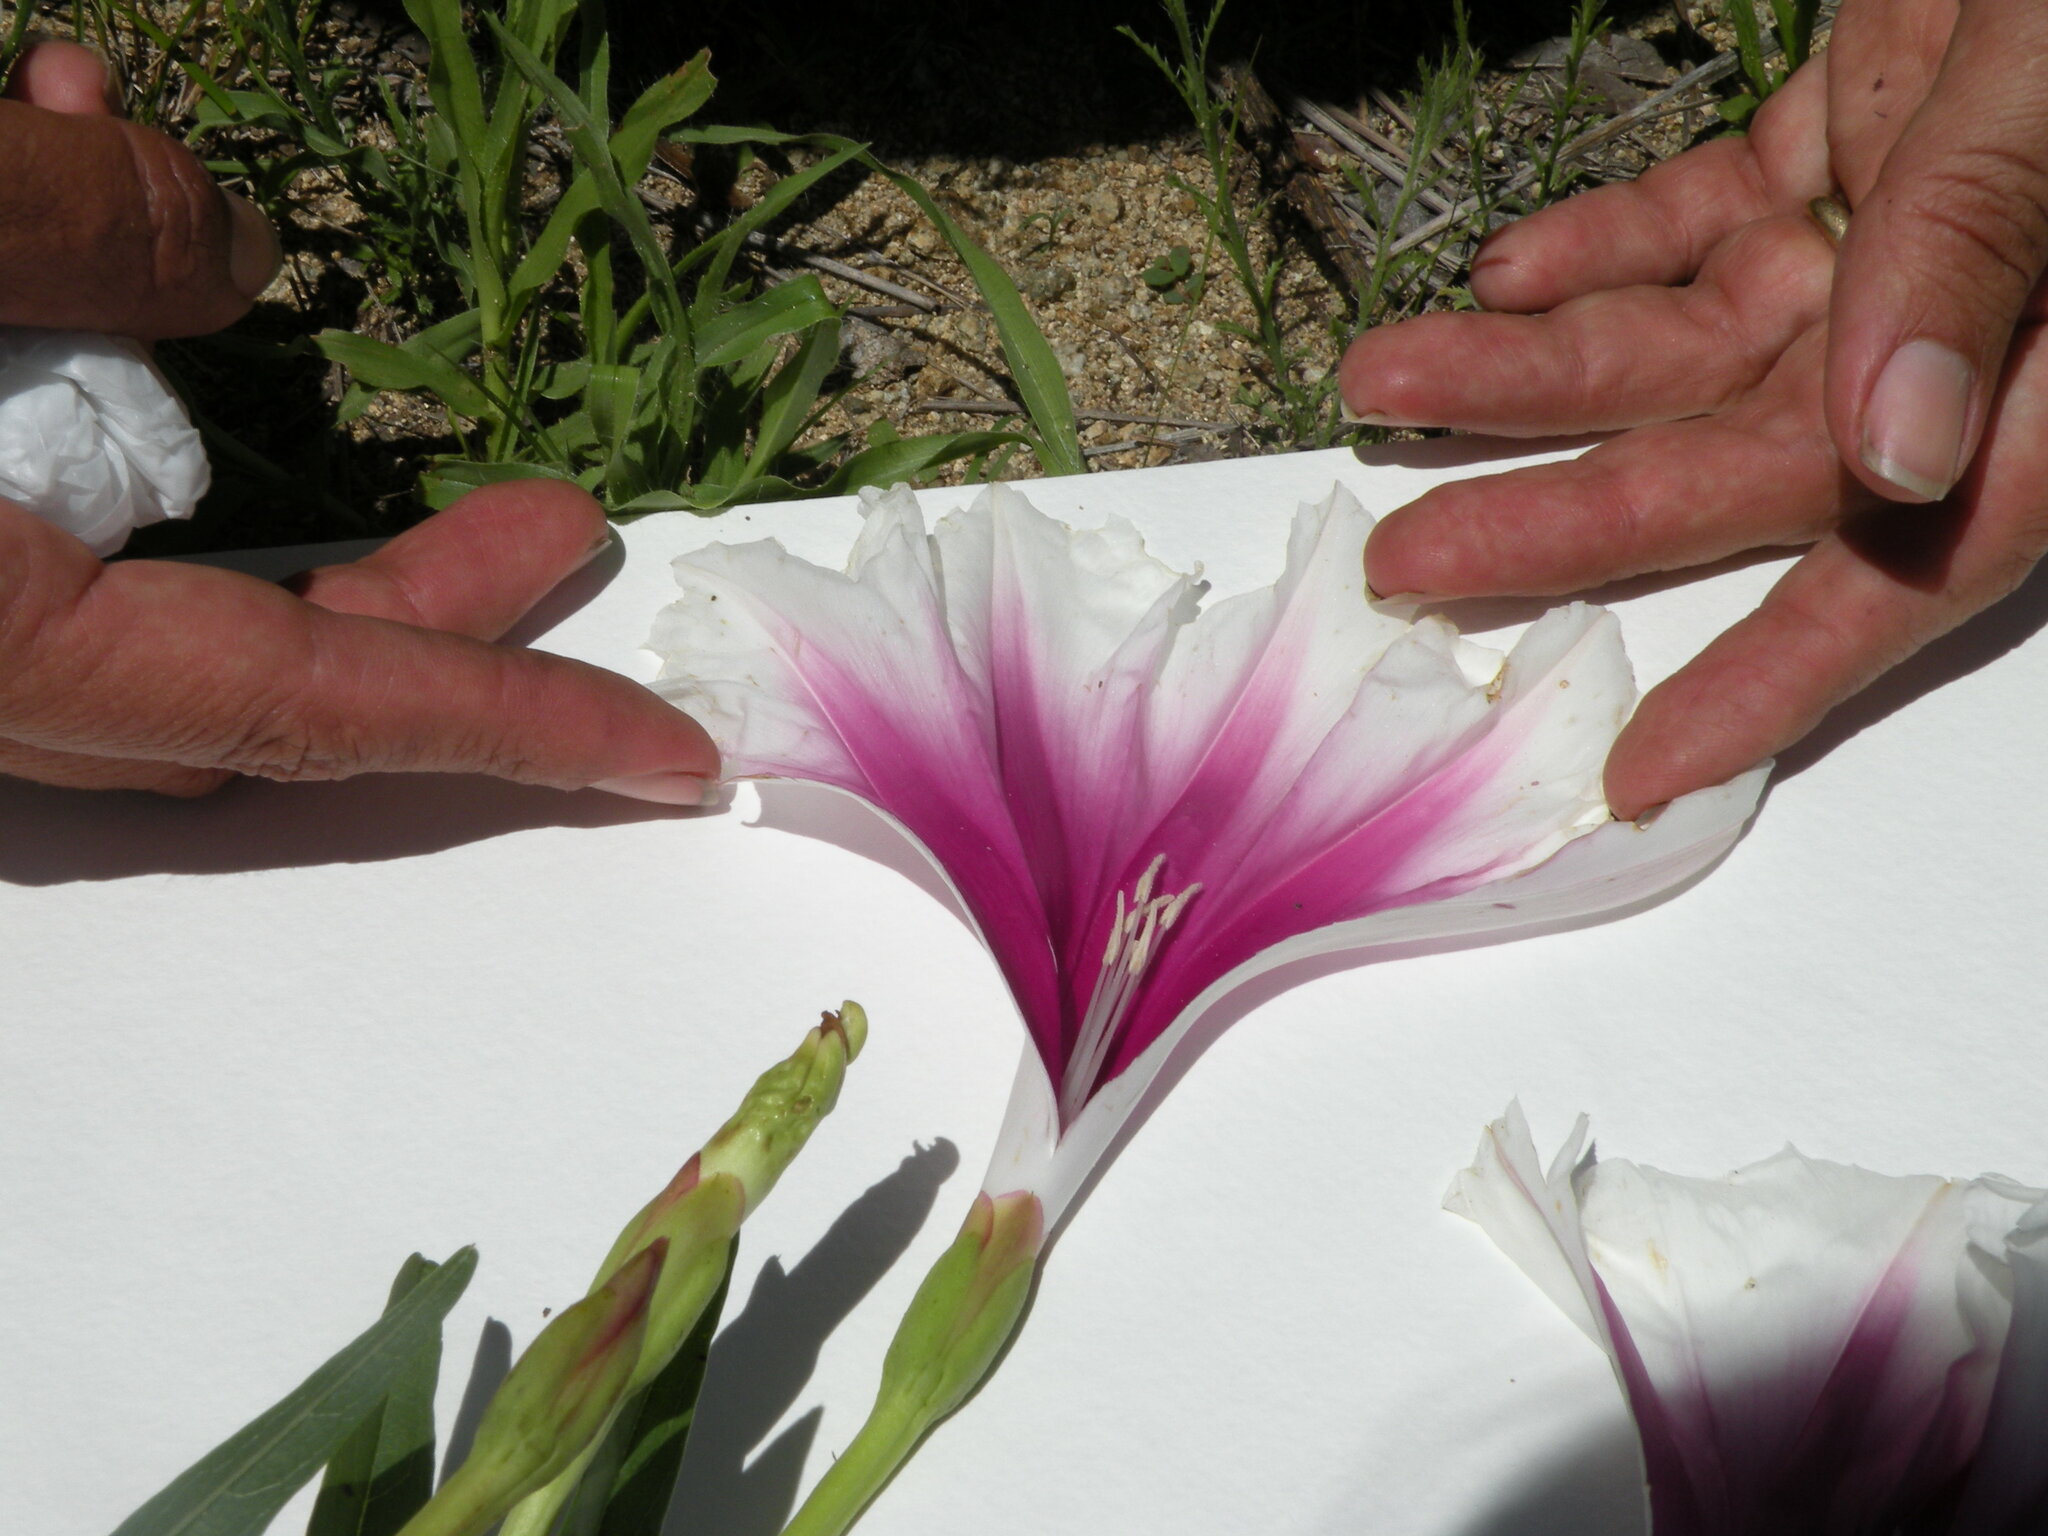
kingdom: Plantae
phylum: Tracheophyta
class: Magnoliopsida
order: Solanales
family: Convolvulaceae
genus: Ipomoea
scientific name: Ipomoea longifolia
